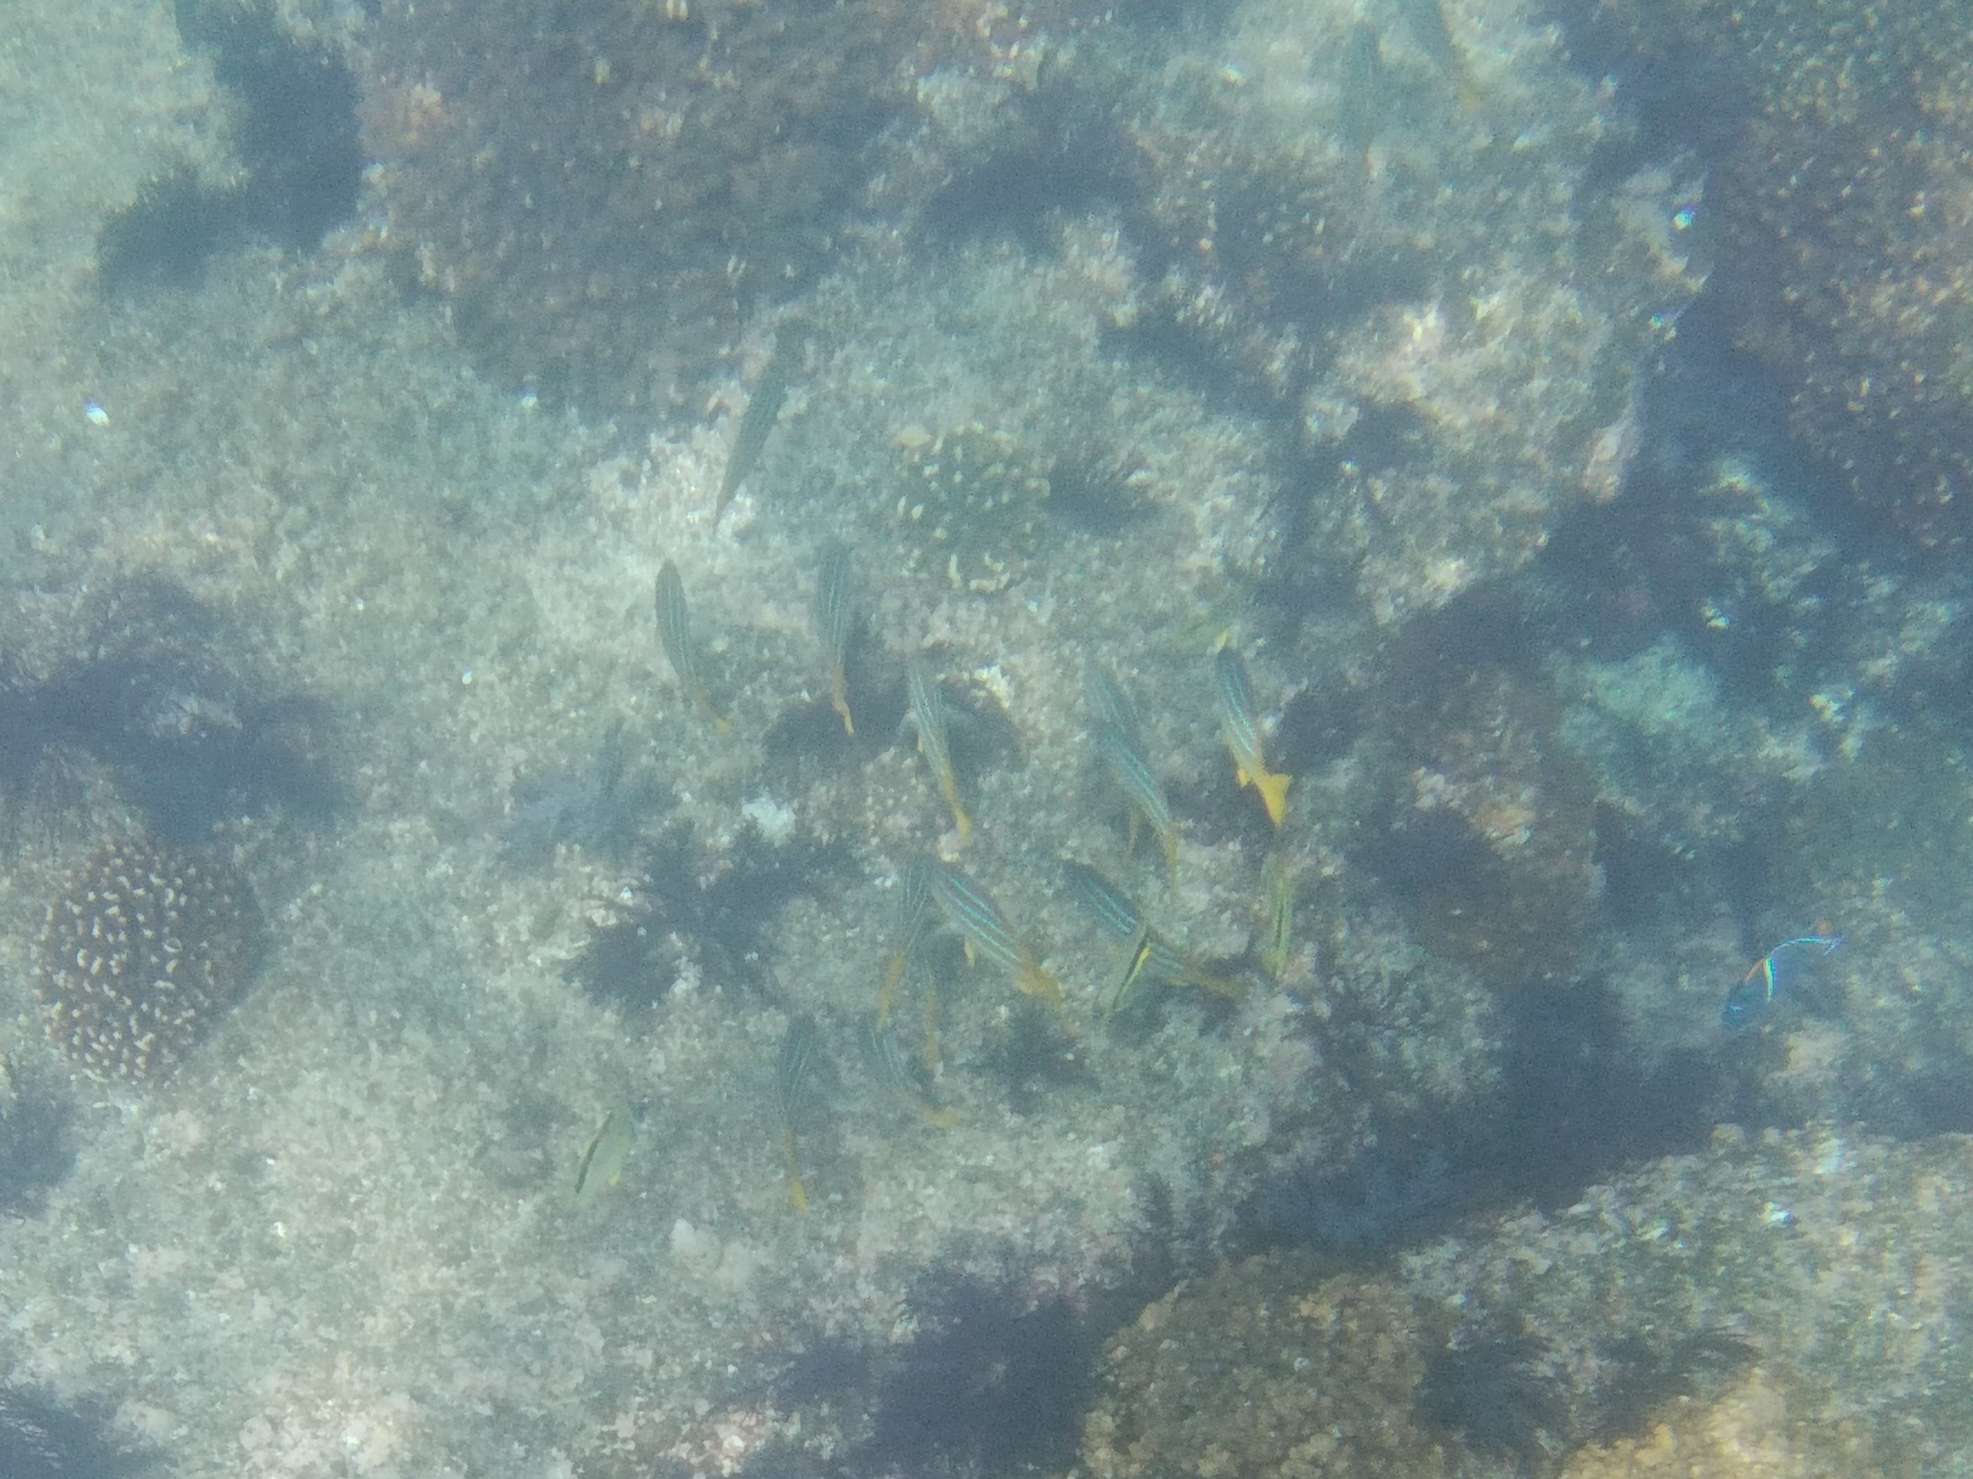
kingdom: Animalia
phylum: Chordata
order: Perciformes
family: Lutjanidae
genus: Lutjanus
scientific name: Lutjanus viridis
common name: Blue and gold snapper
